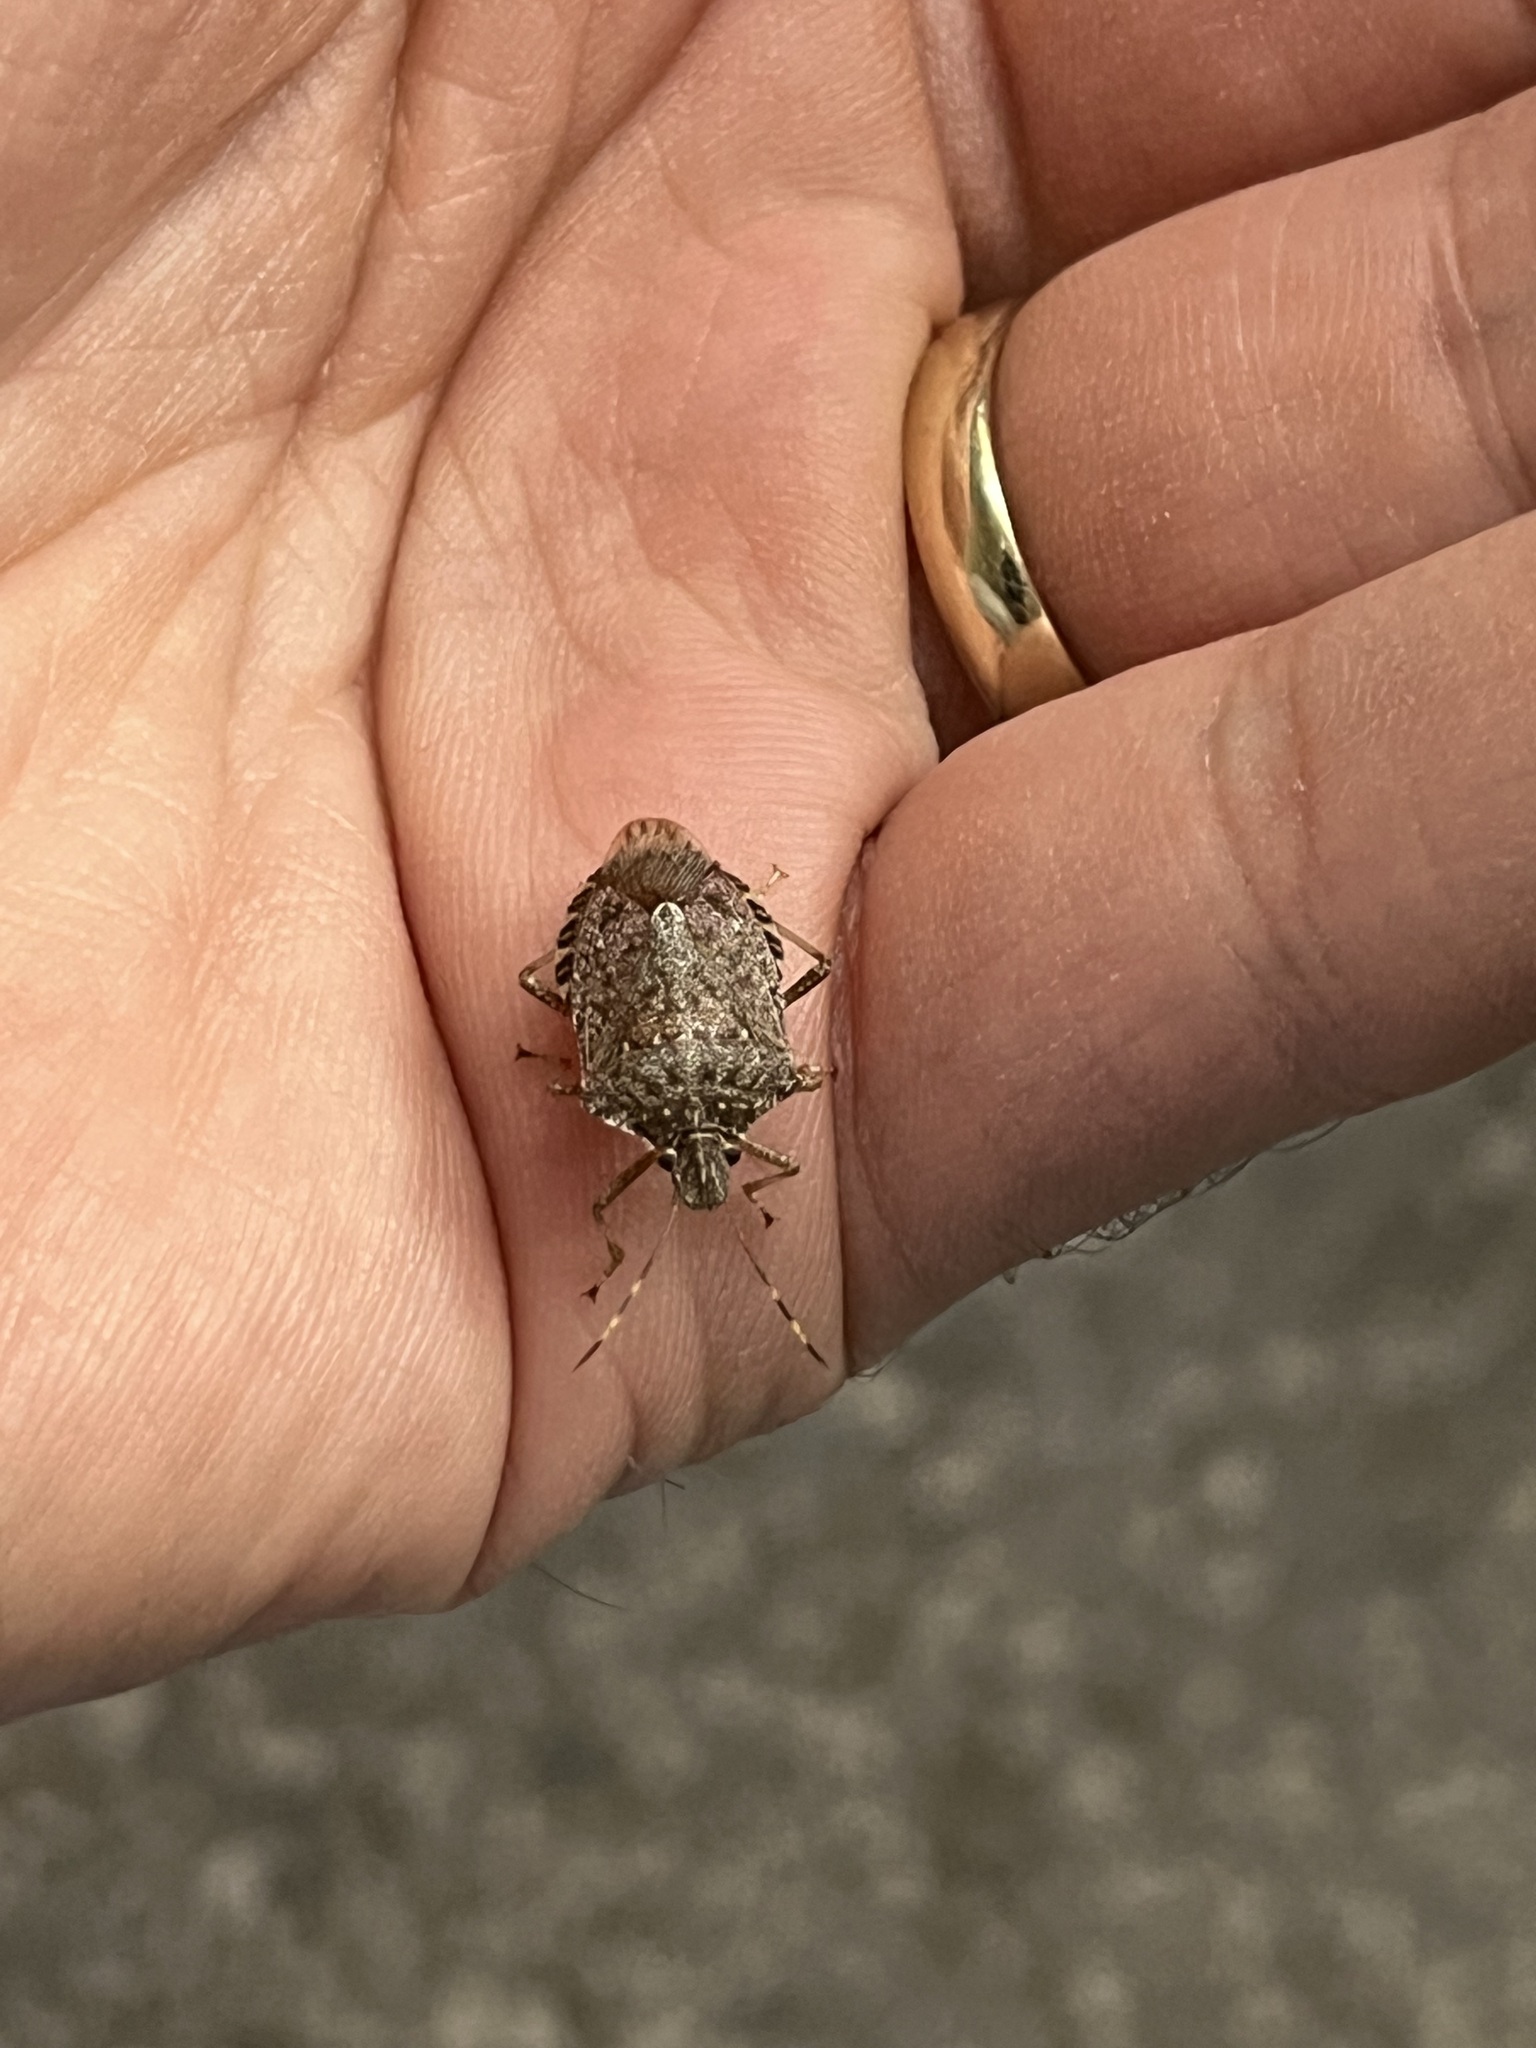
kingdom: Animalia
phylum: Arthropoda
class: Insecta
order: Hemiptera
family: Pentatomidae
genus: Halyomorpha
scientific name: Halyomorpha halys
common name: Brown marmorated stink bug
